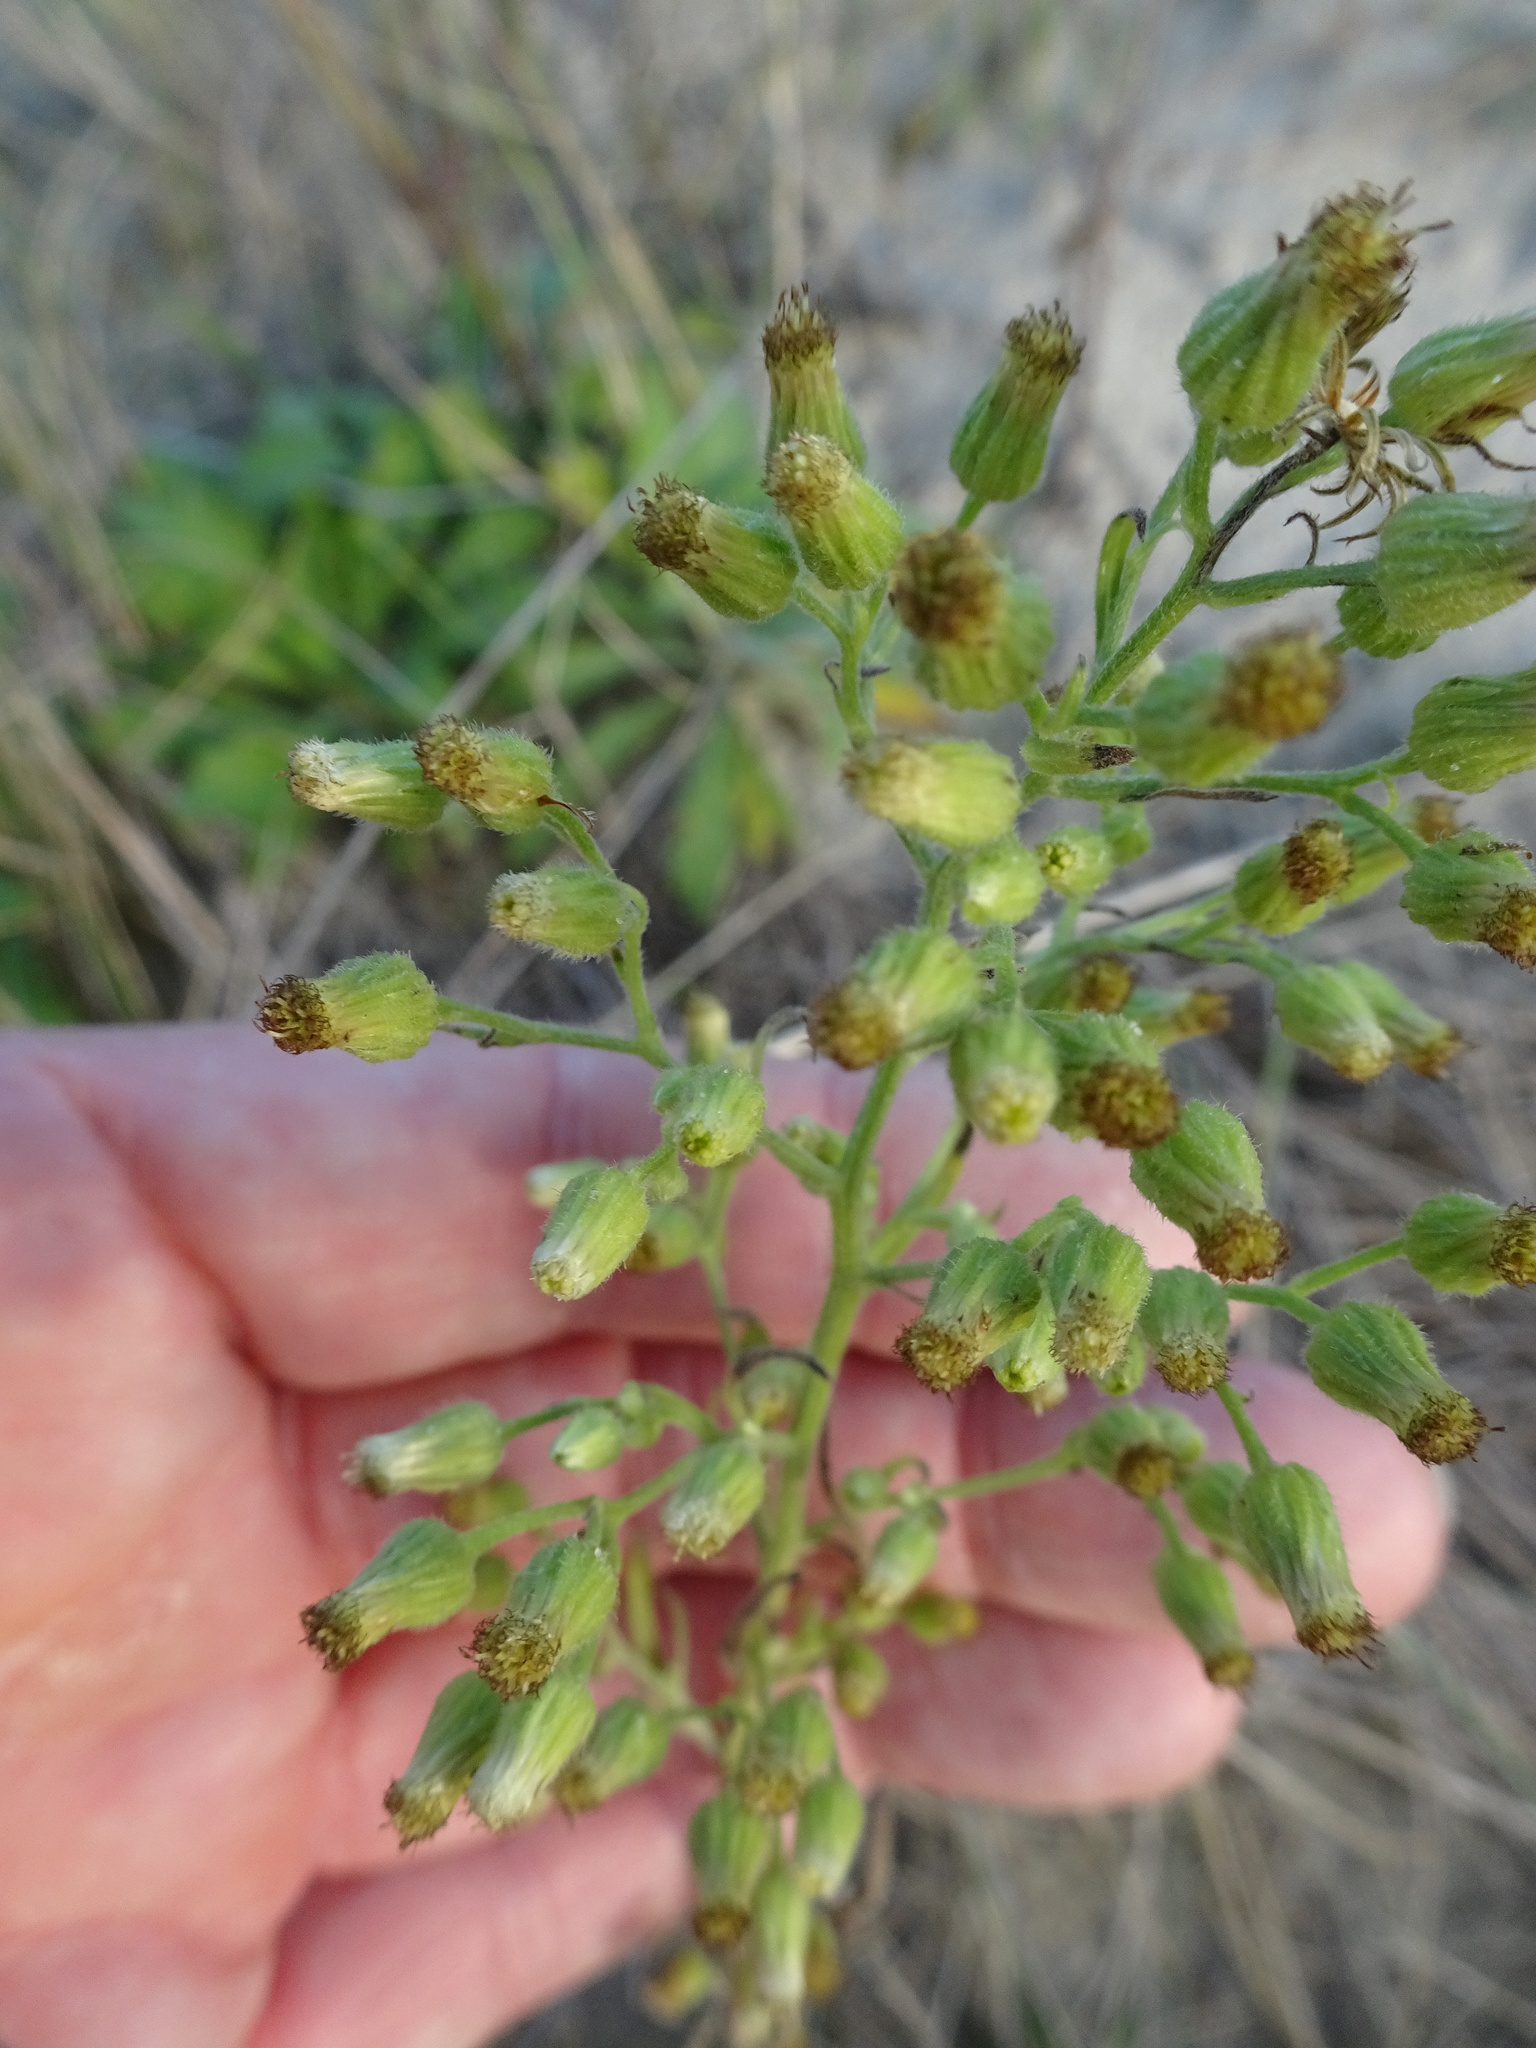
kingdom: Plantae
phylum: Tracheophyta
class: Magnoliopsida
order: Asterales
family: Asteraceae
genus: Erigeron
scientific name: Erigeron sumatrensis
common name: Daisy
